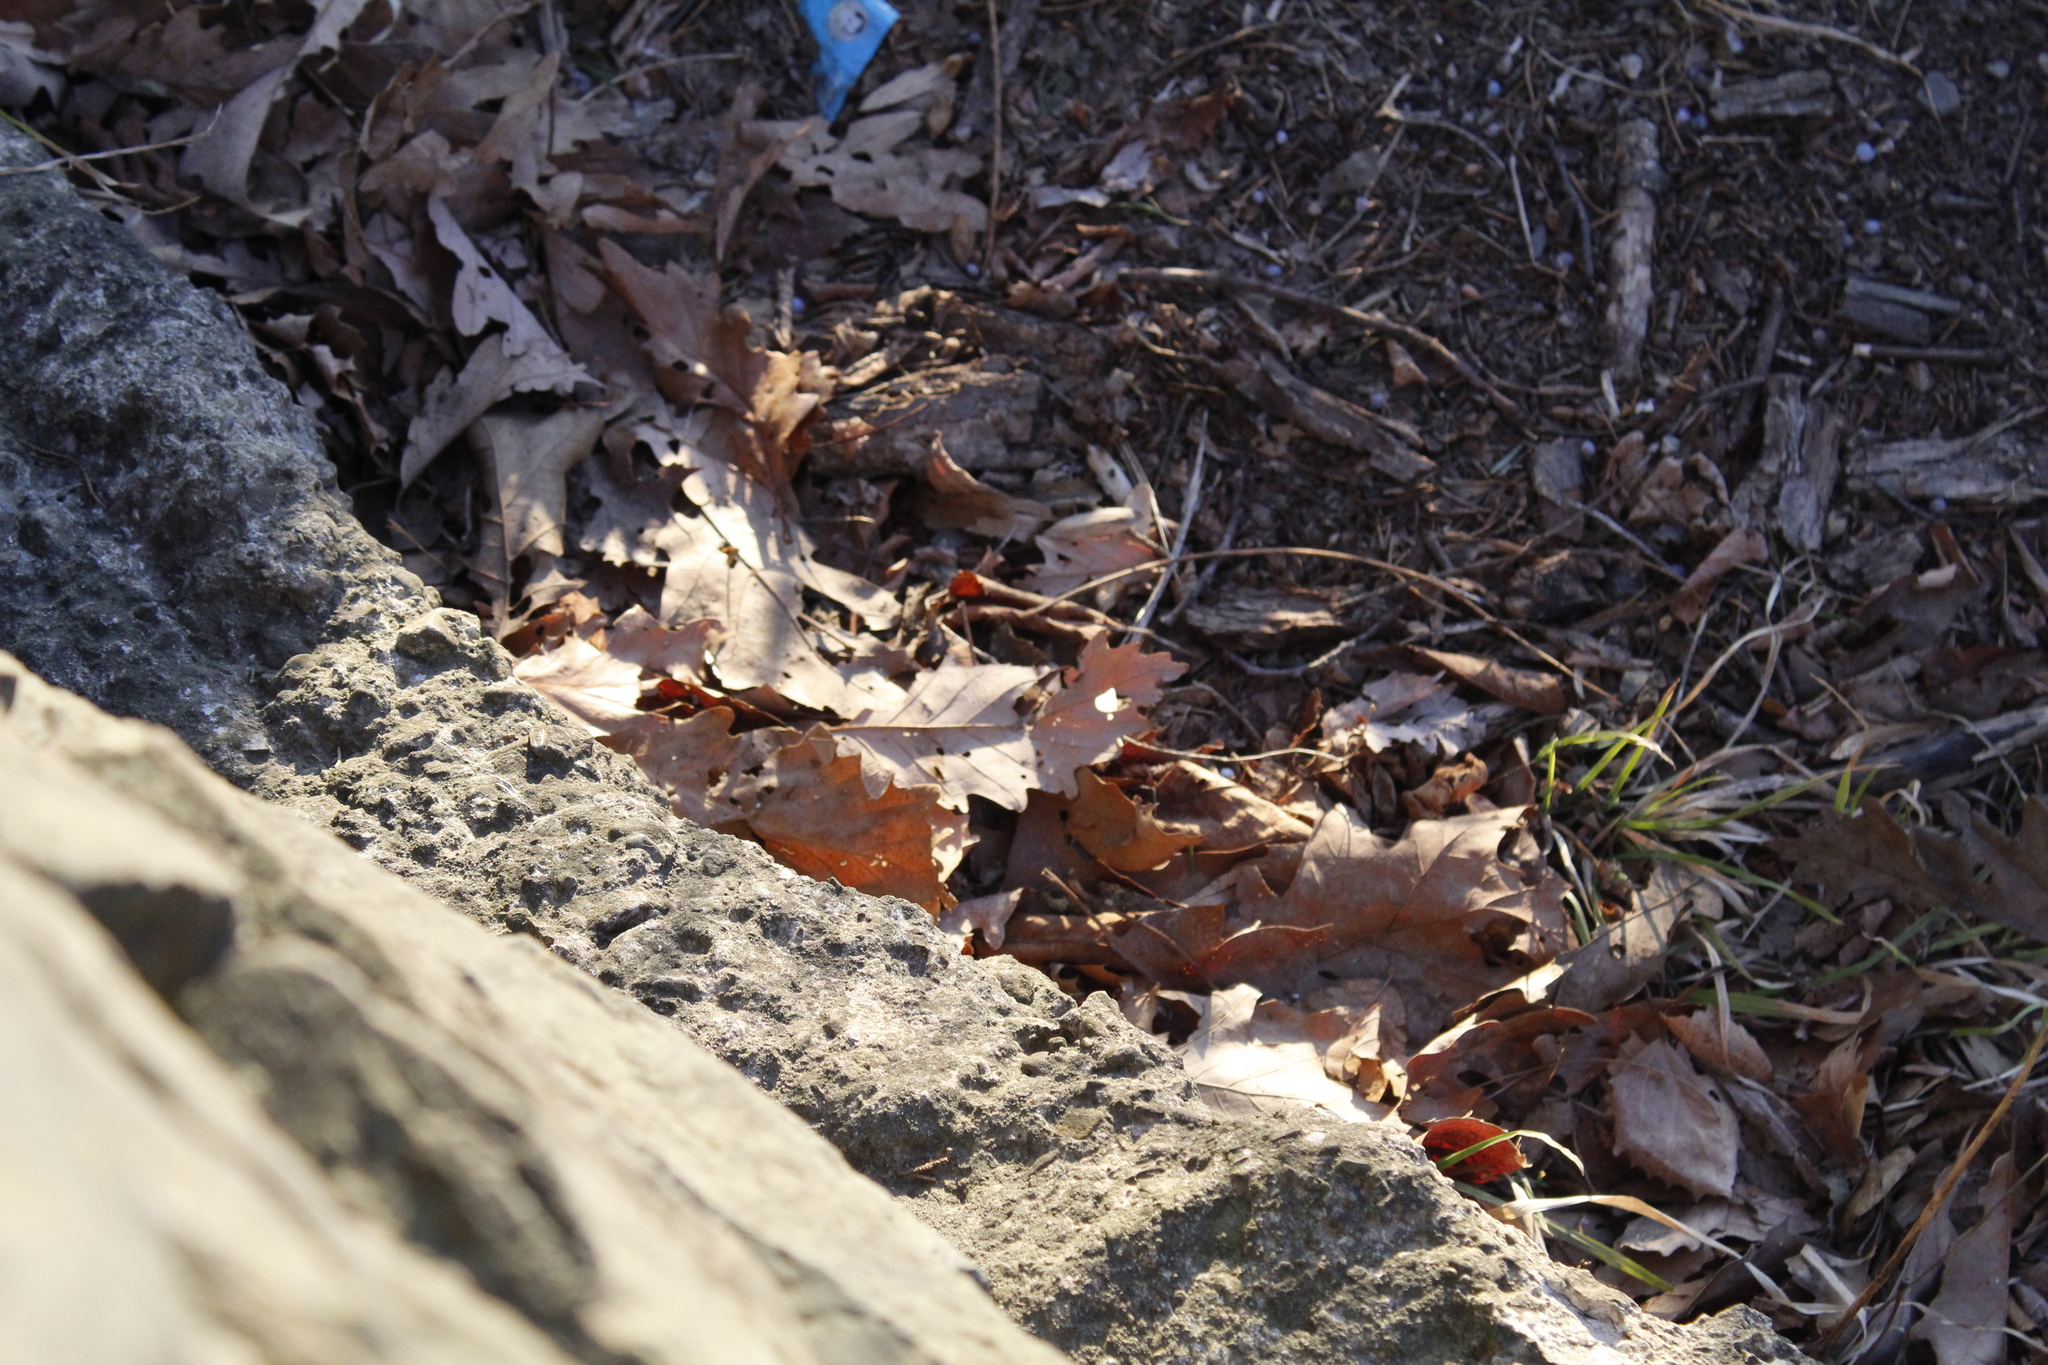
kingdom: Plantae
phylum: Tracheophyta
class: Magnoliopsida
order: Fagales
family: Fagaceae
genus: Quercus
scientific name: Quercus montana
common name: Chestnut oak
